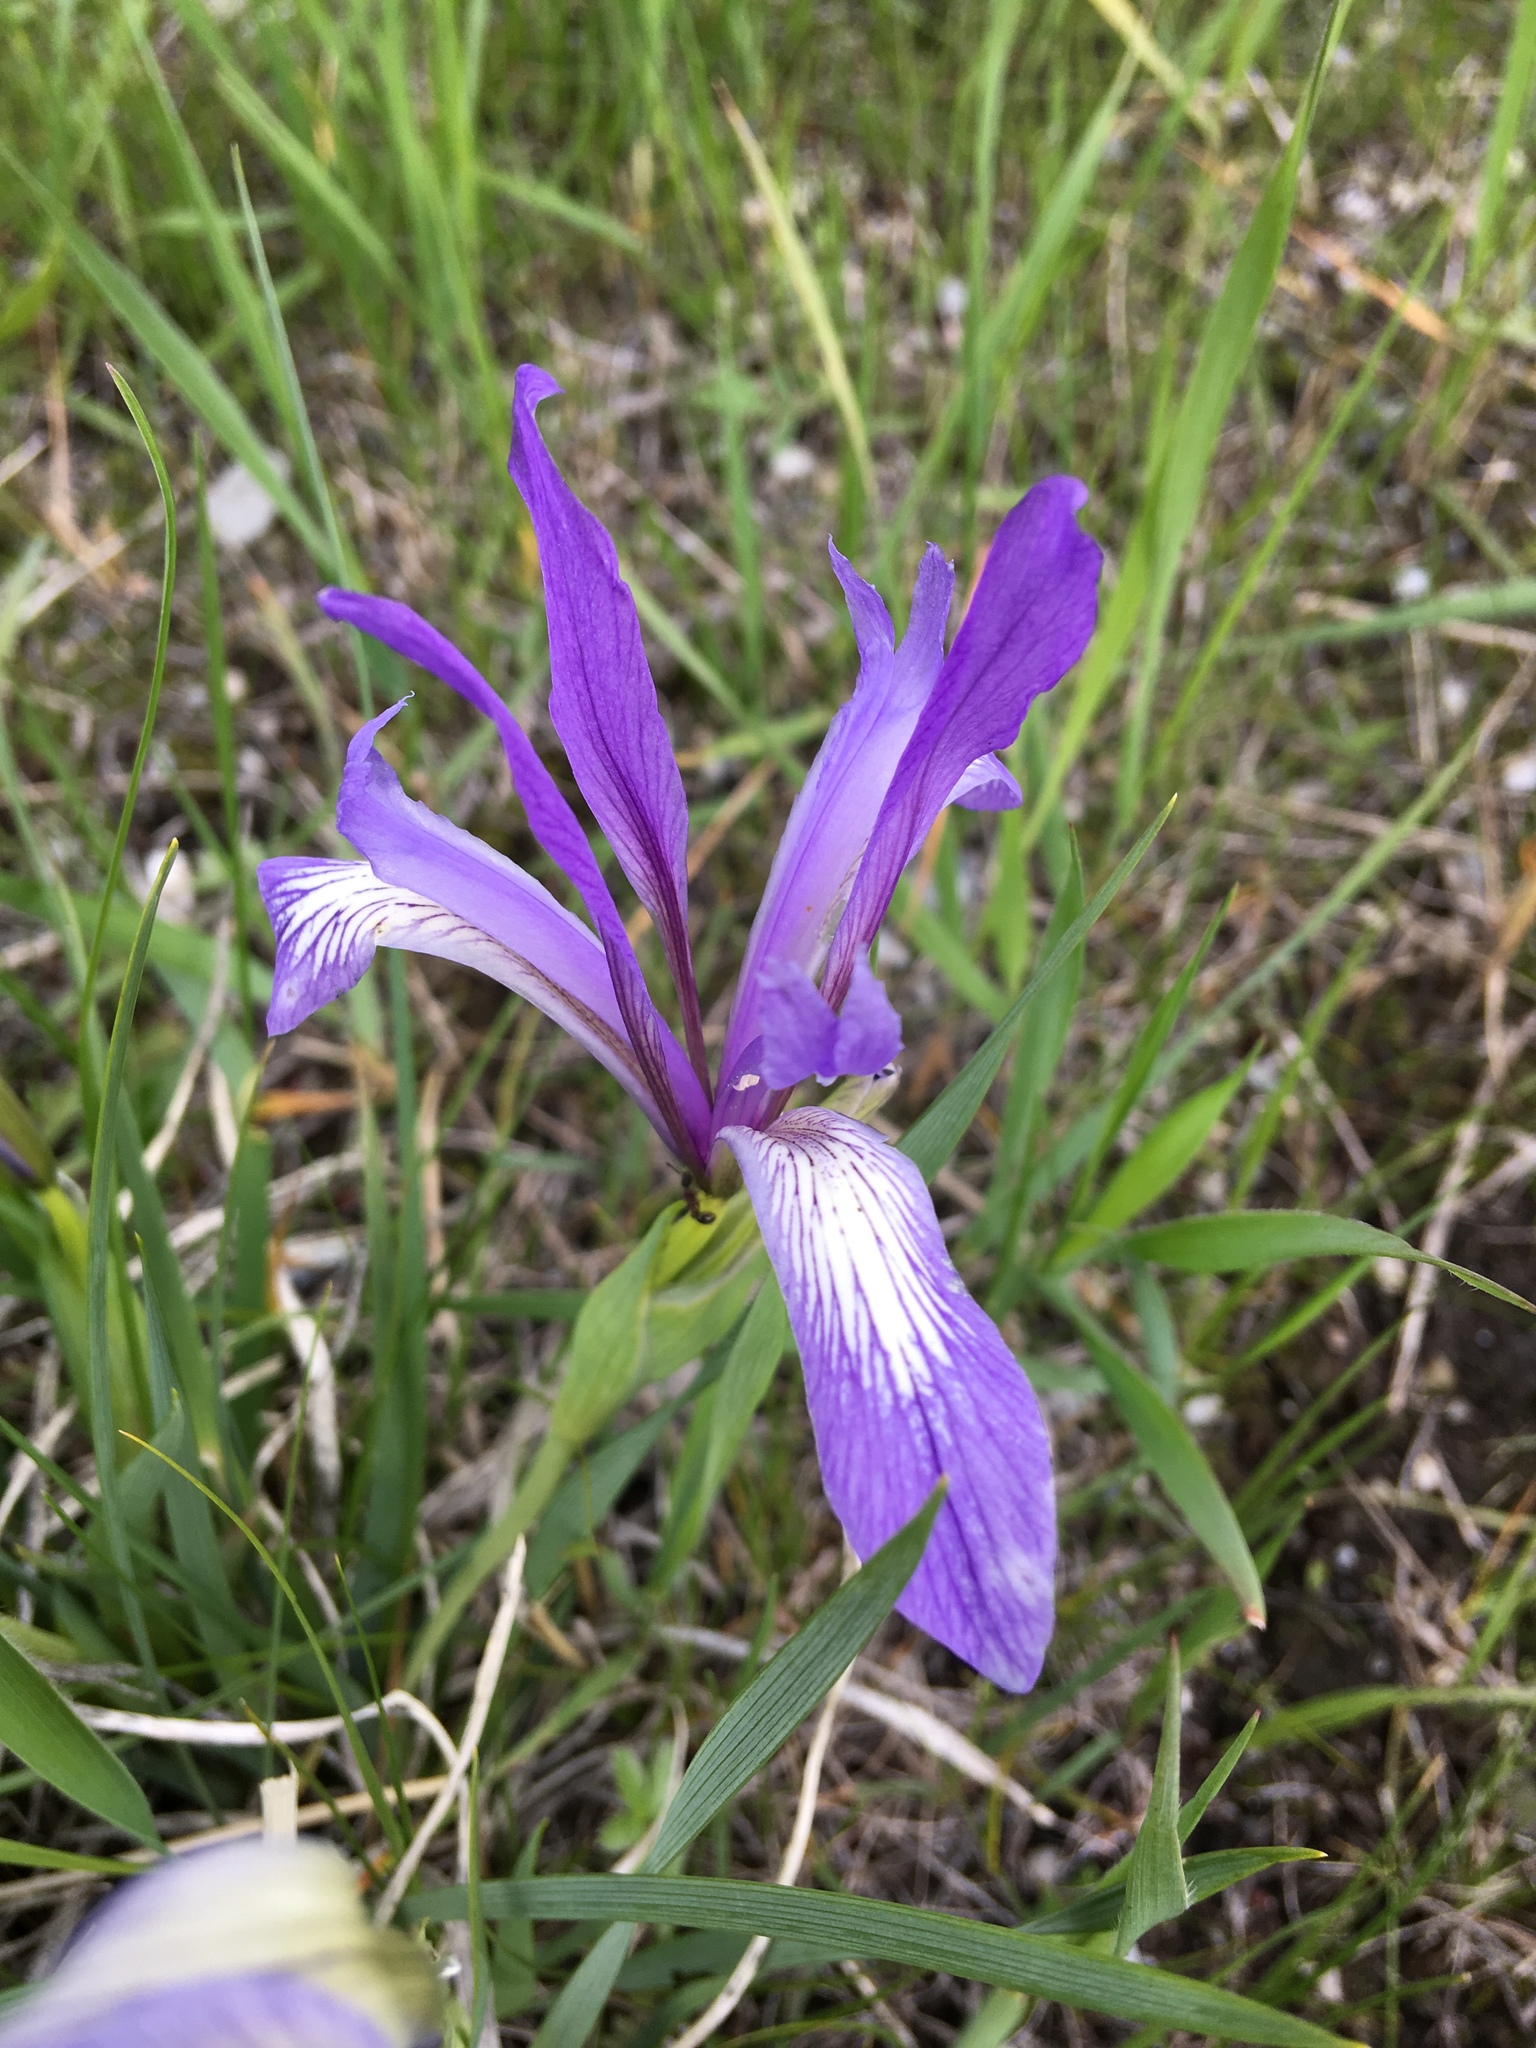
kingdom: Plantae
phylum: Tracheophyta
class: Liliopsida
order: Asparagales
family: Iridaceae
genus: Iris
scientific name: Iris lactea
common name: White-flower chinese iris
